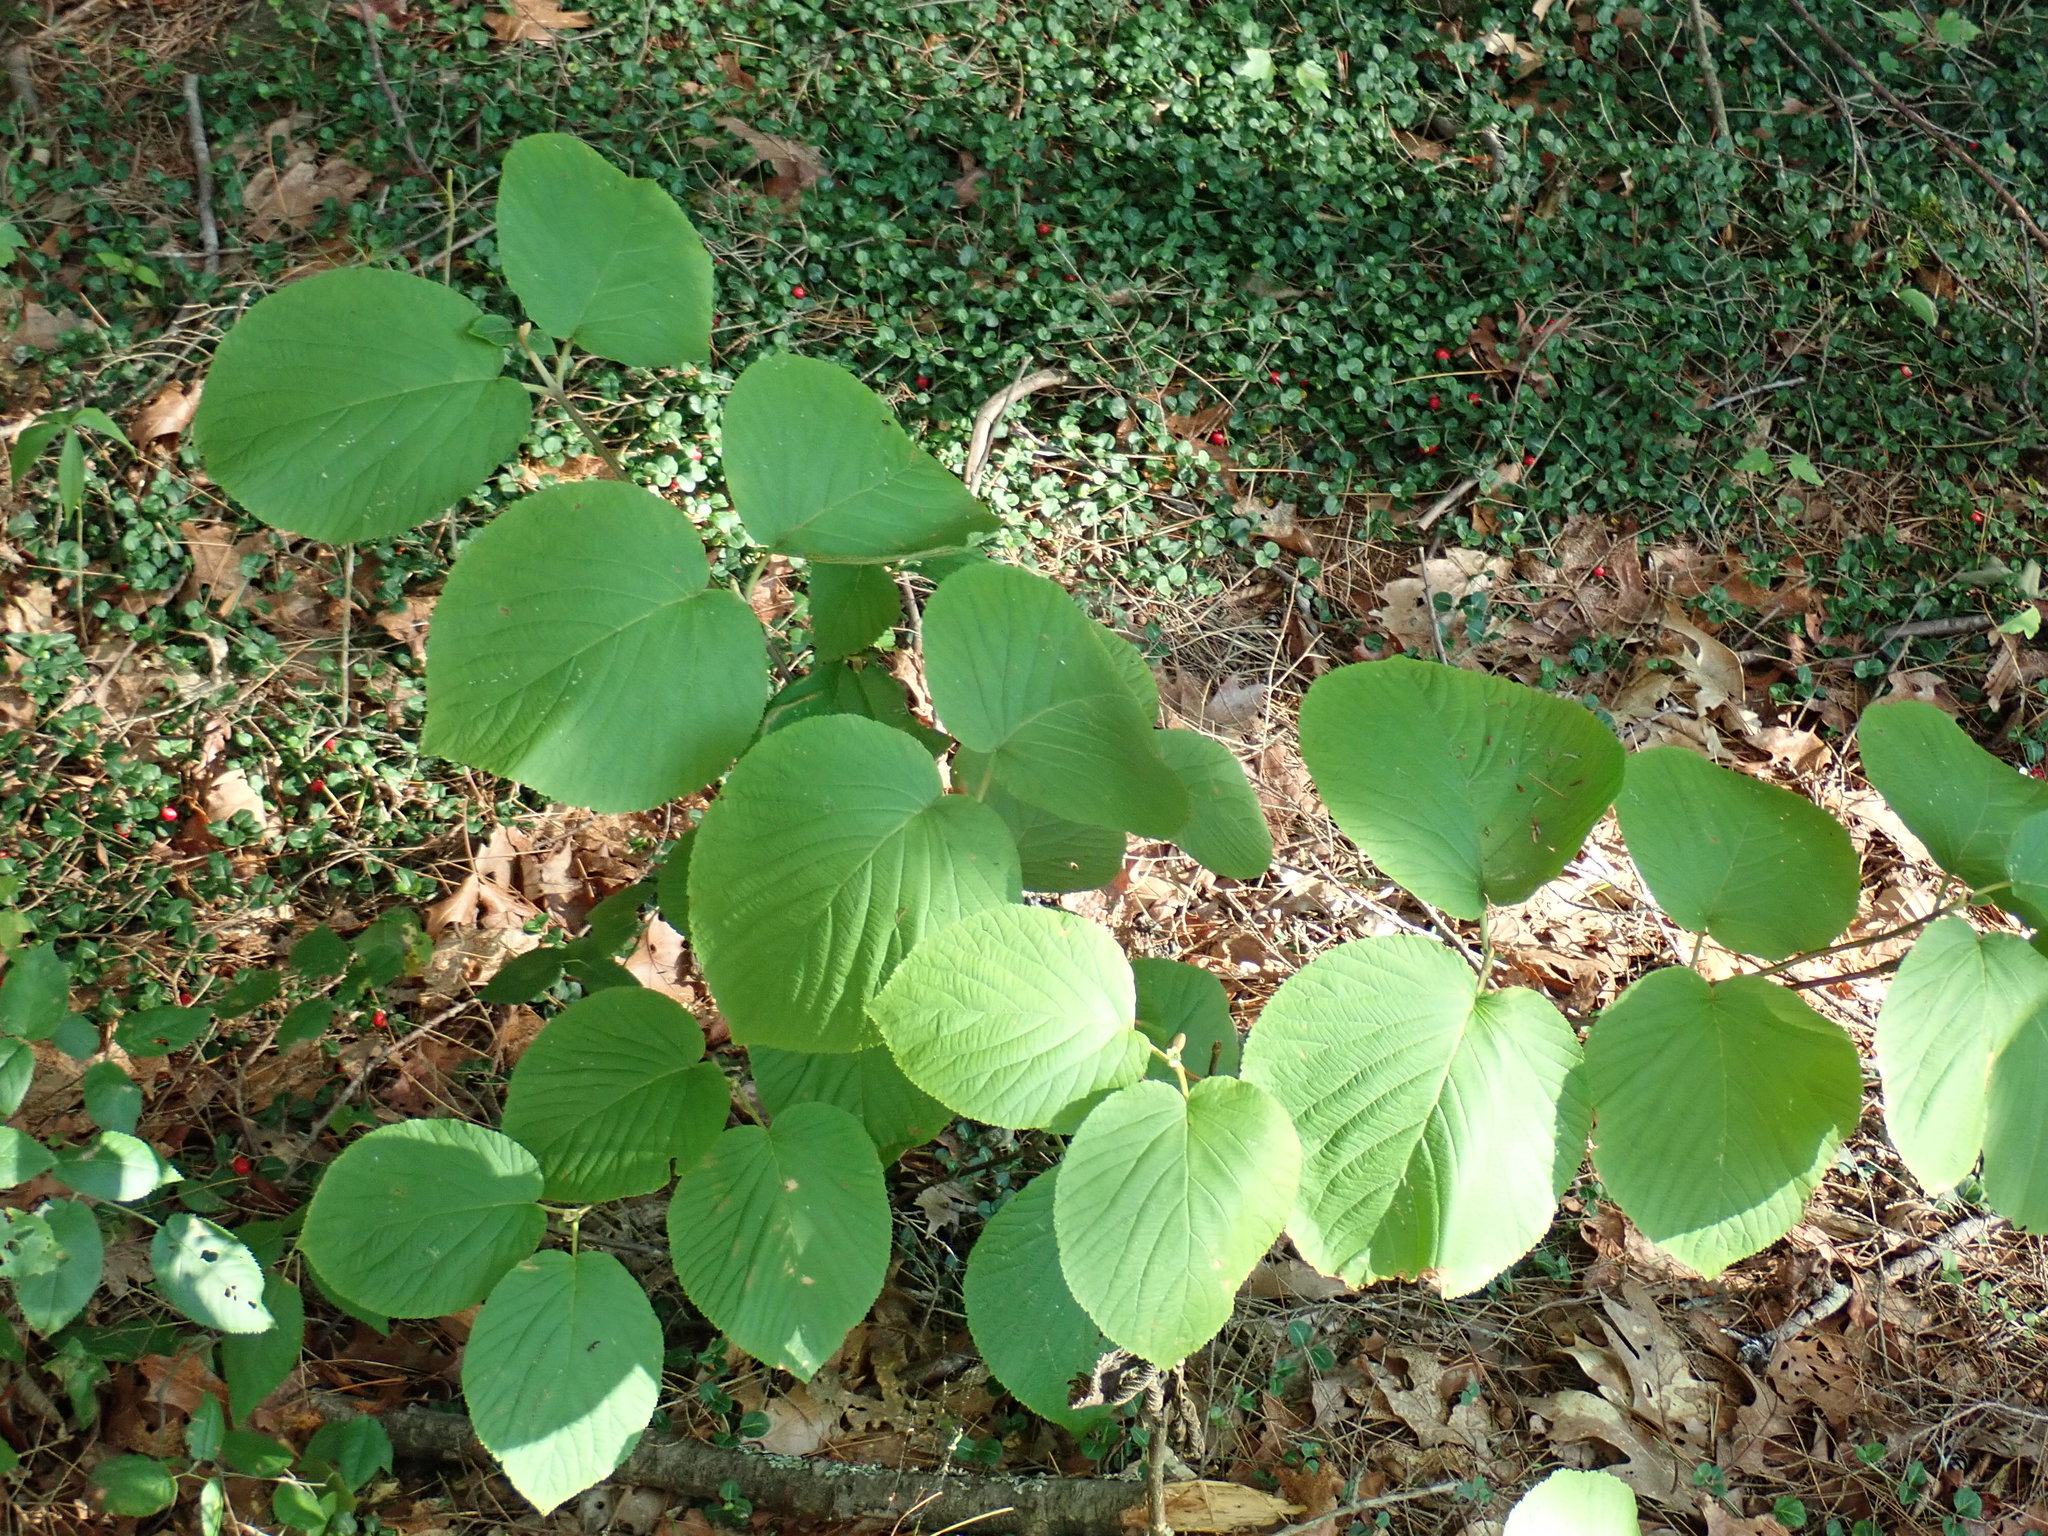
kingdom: Plantae
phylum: Tracheophyta
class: Magnoliopsida
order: Dipsacales
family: Viburnaceae
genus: Viburnum
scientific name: Viburnum lantanoides
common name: Hobblebush
